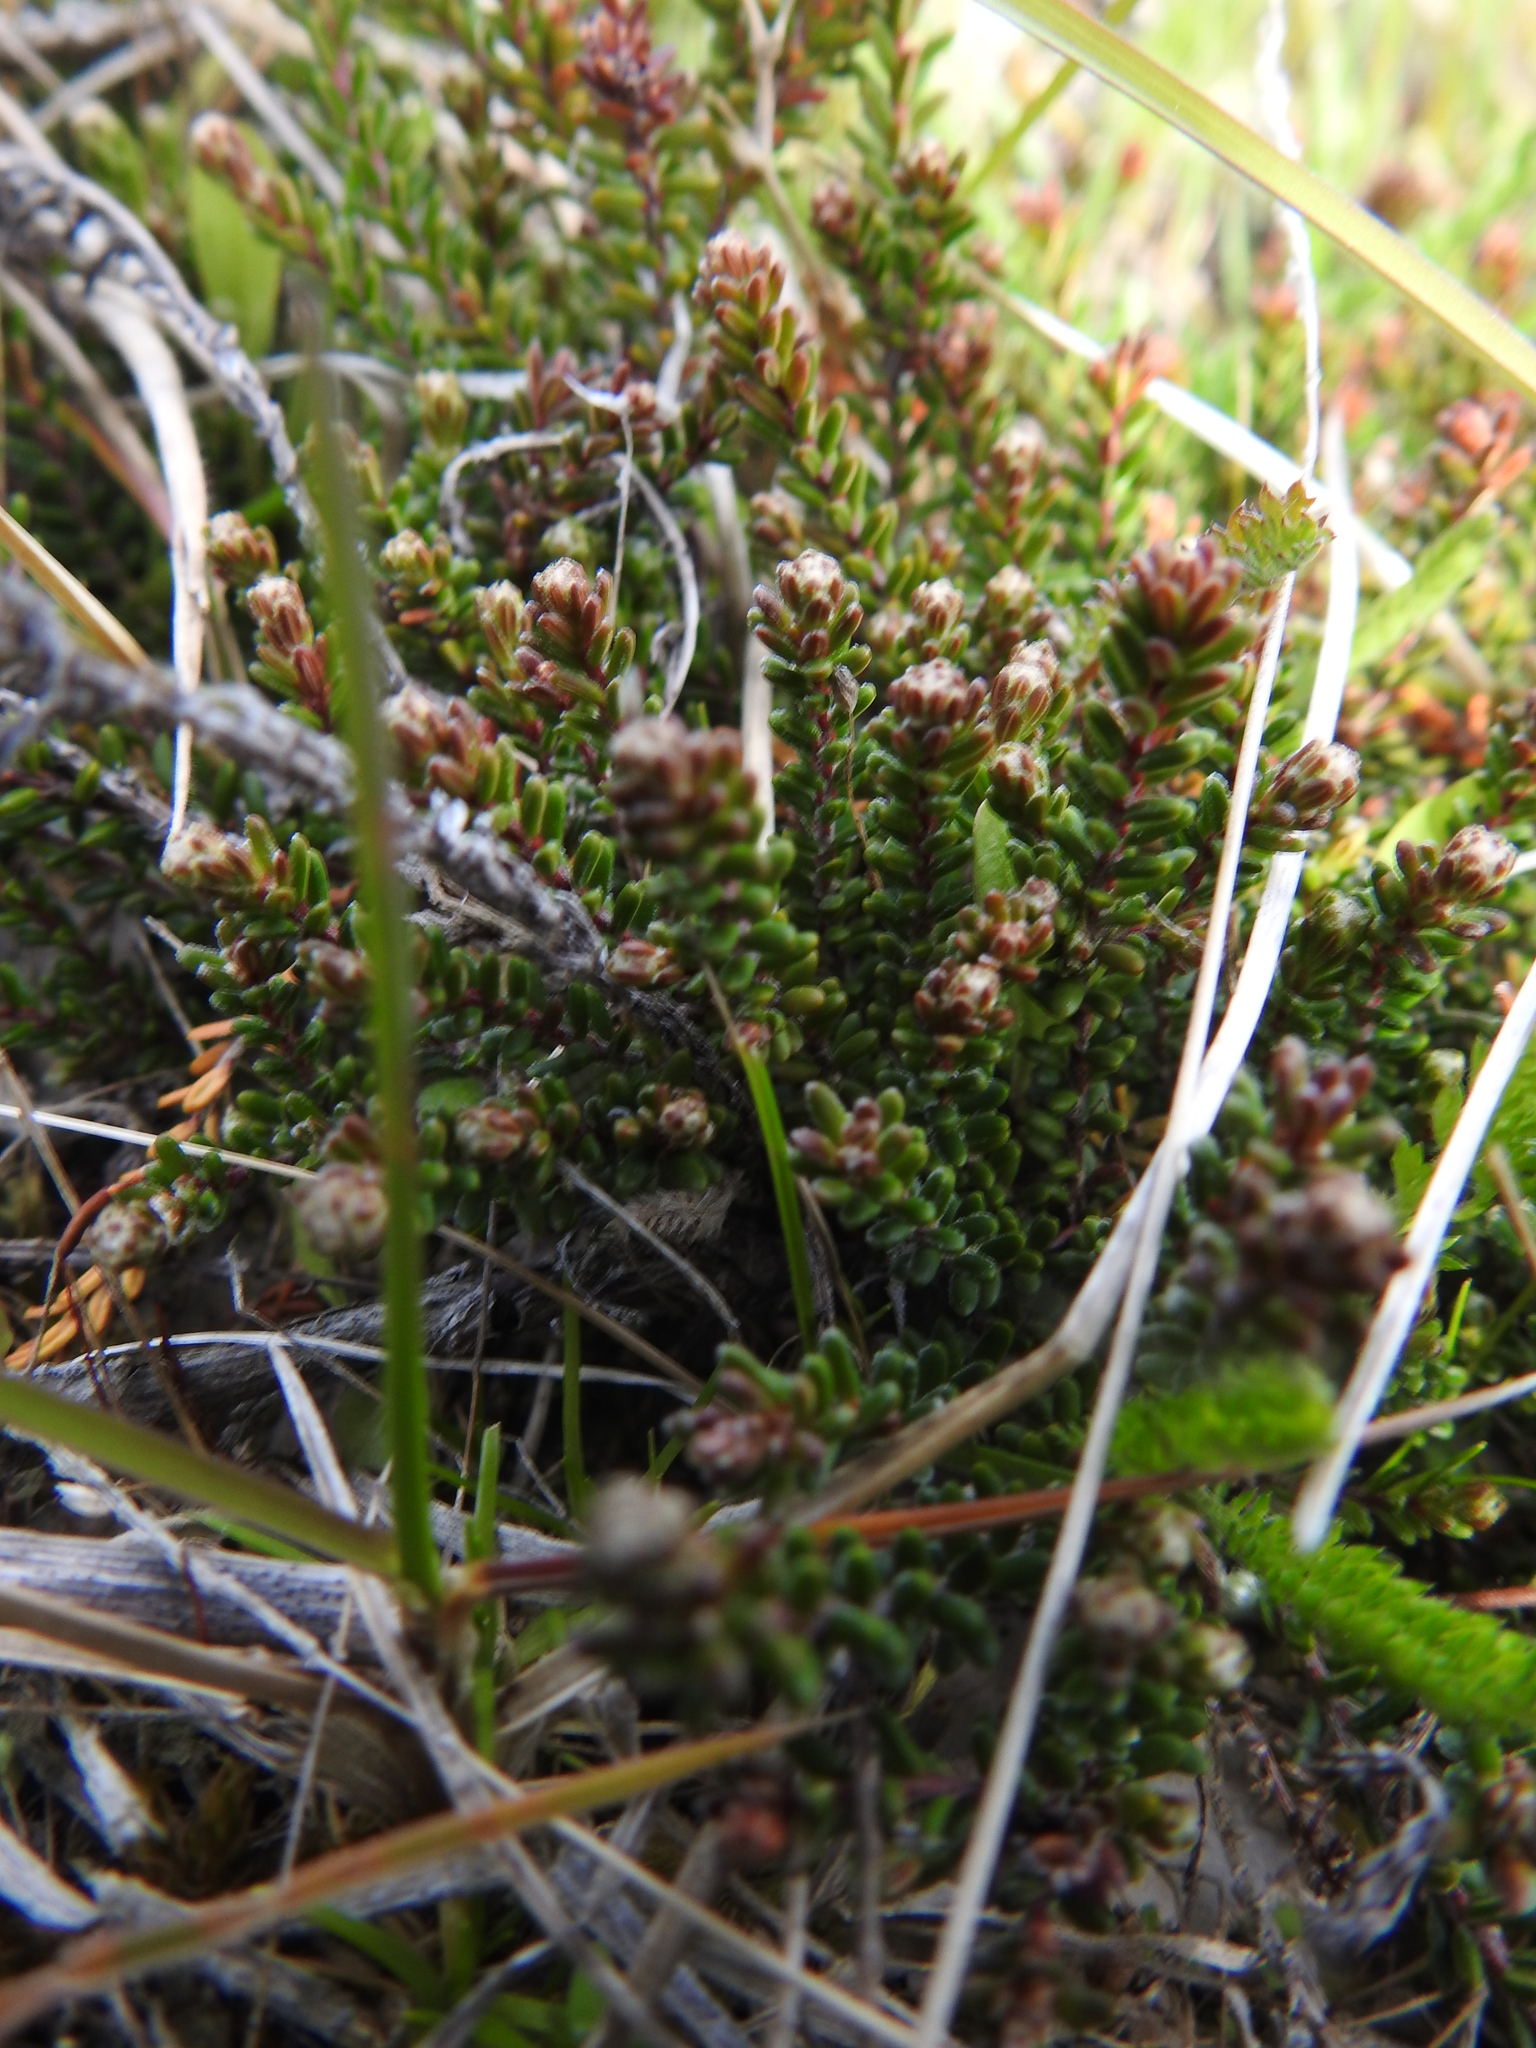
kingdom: Plantae
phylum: Tracheophyta
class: Magnoliopsida
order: Ericales
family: Ericaceae
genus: Empetrum
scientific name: Empetrum rubrum
